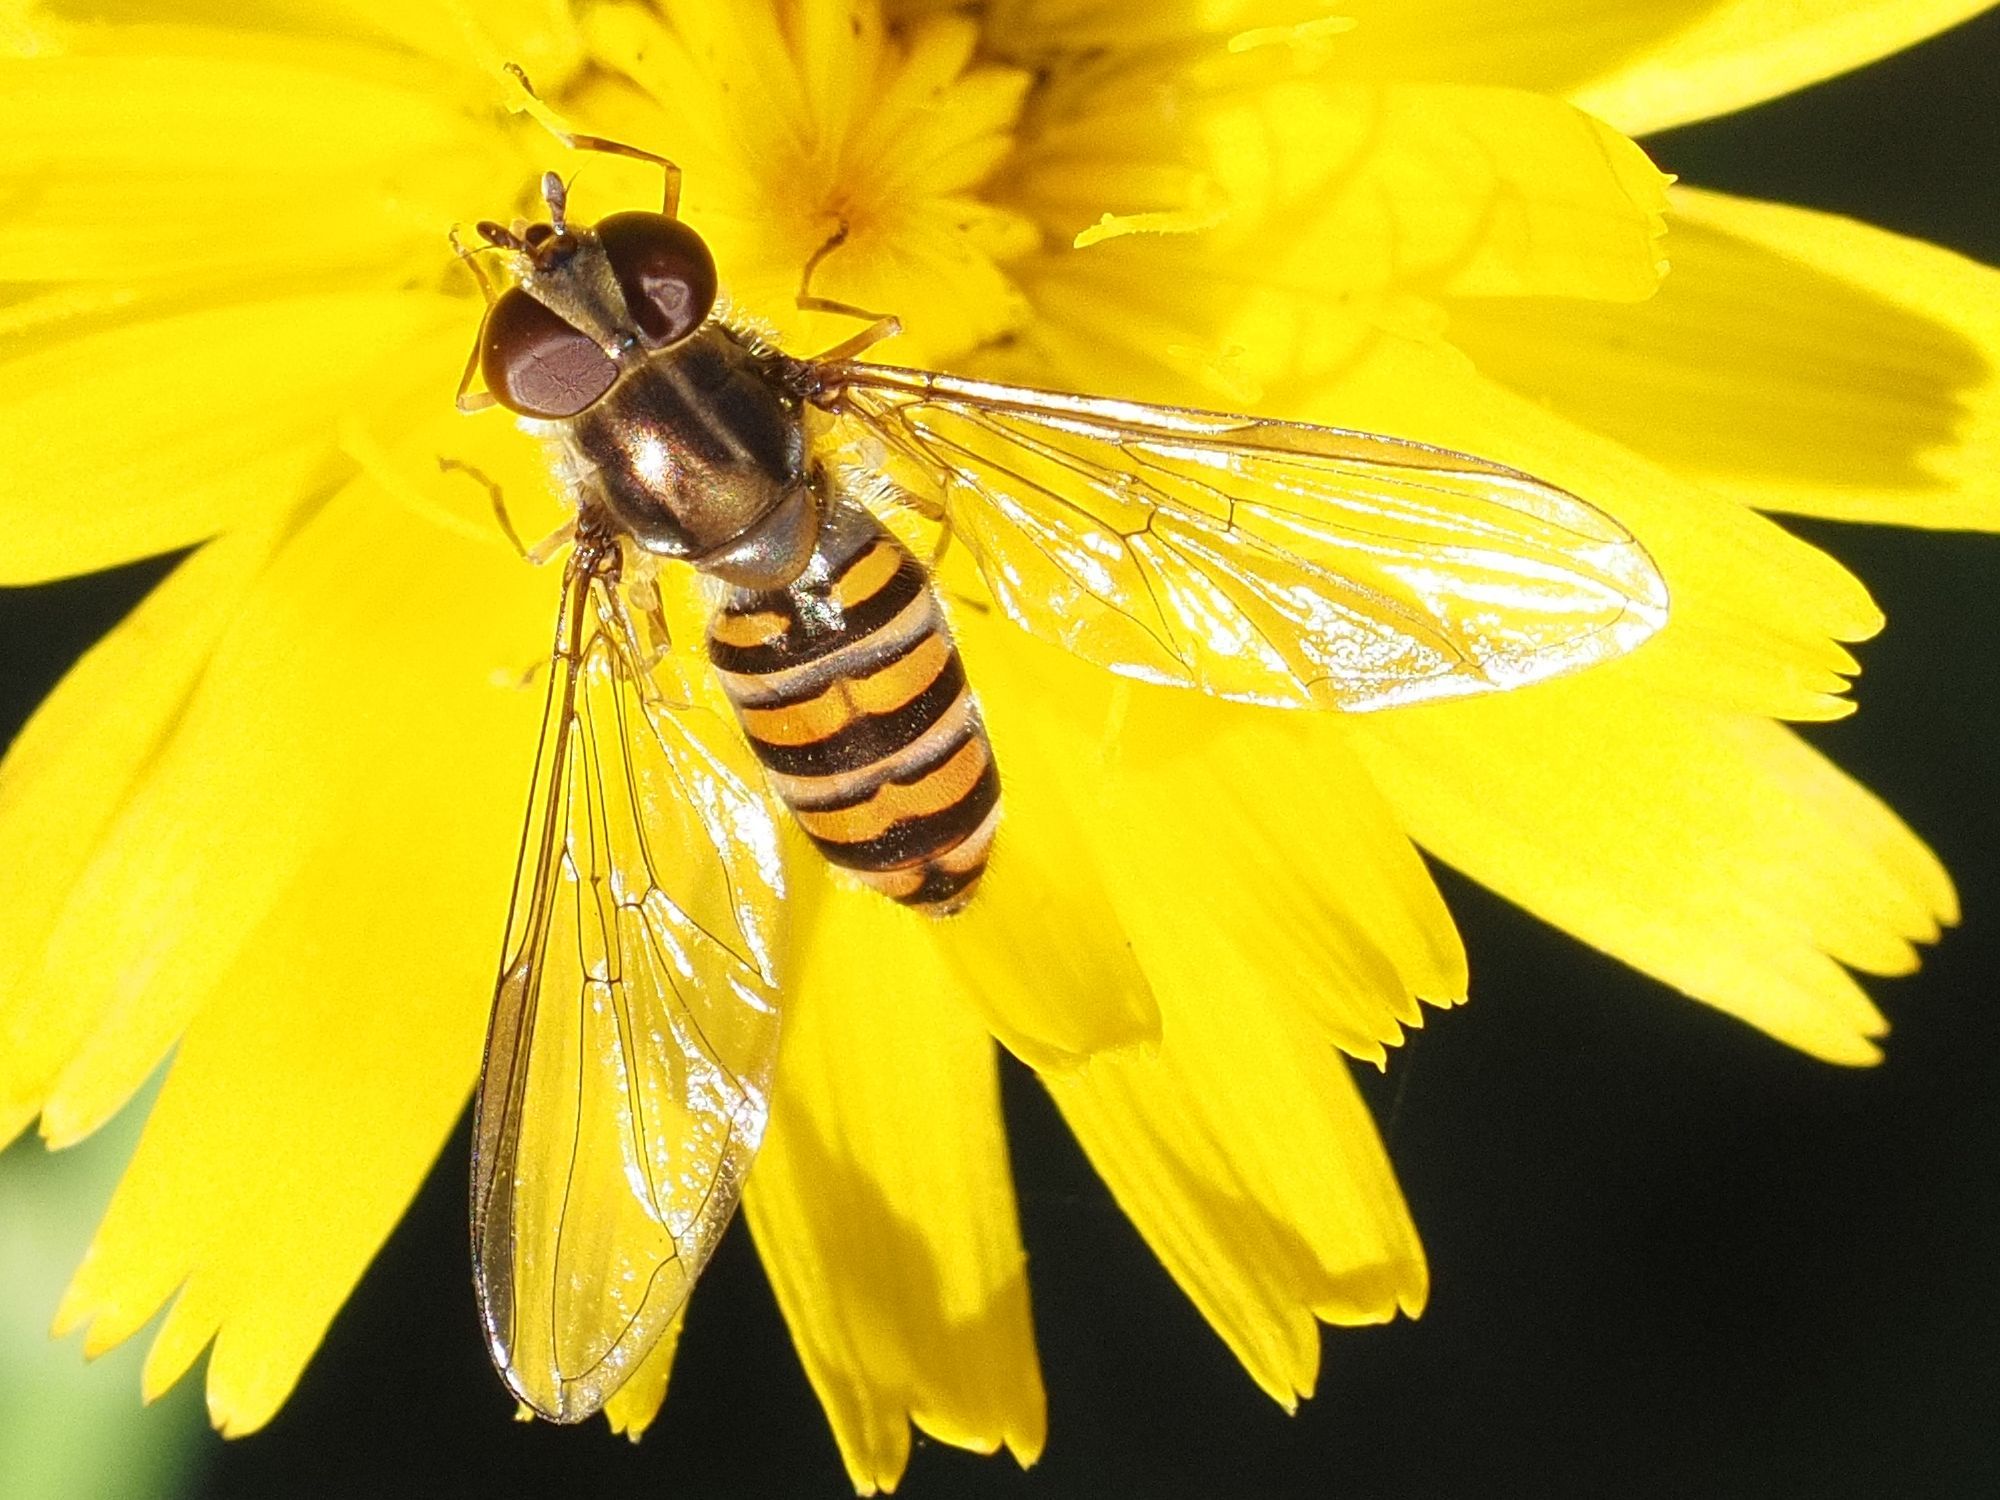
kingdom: Animalia
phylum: Arthropoda
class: Insecta
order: Diptera
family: Syrphidae
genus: Episyrphus
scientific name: Episyrphus balteatus
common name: Marmalade hoverfly
